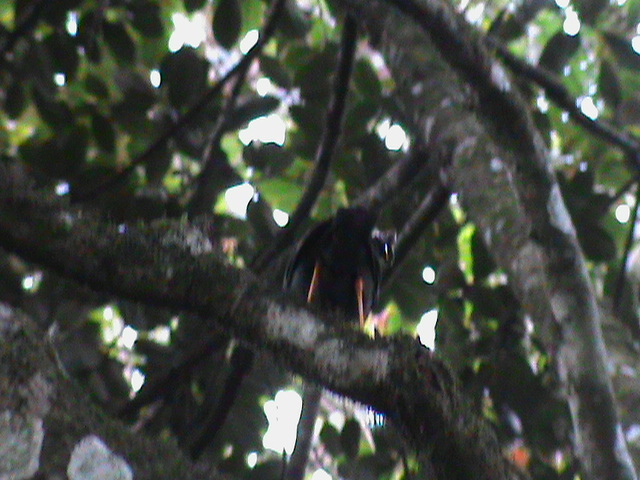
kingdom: Animalia
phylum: Chordata
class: Aves
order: Passeriformes
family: Turdidae
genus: Turdus
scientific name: Turdus simillimus
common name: Indian blackbird
